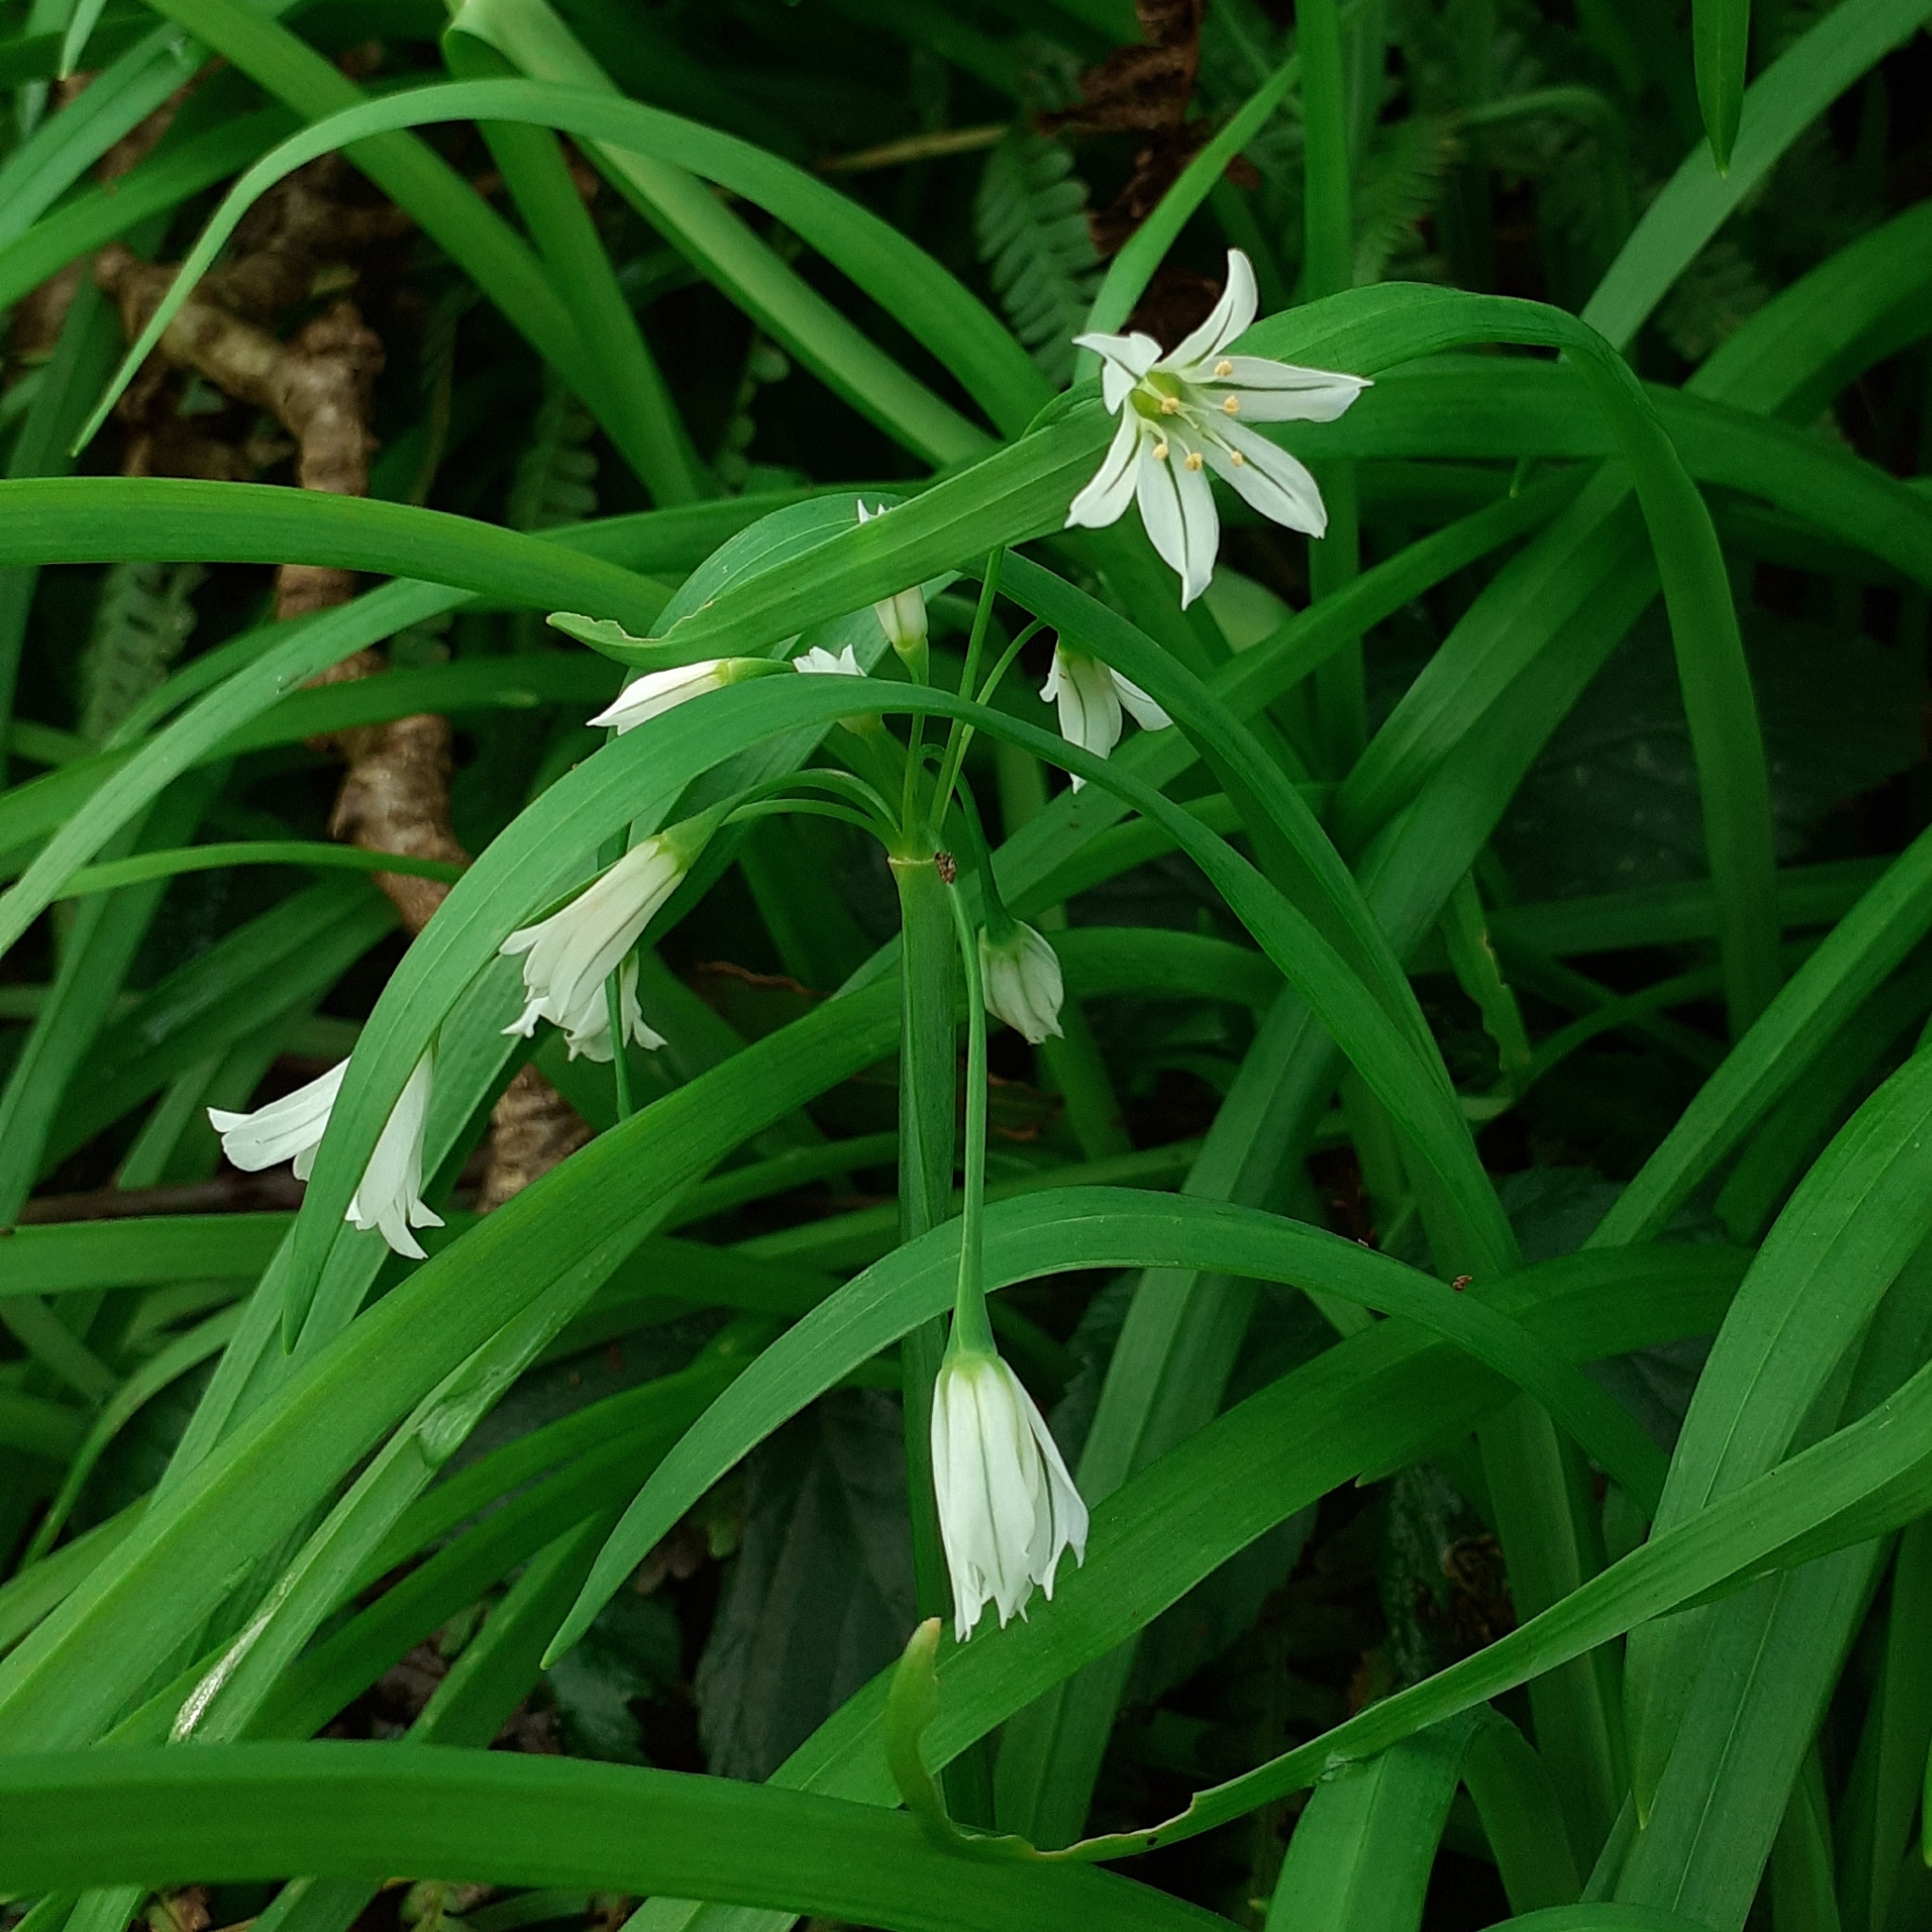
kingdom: Plantae
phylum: Tracheophyta
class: Liliopsida
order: Asparagales
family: Amaryllidaceae
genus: Allium
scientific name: Allium triquetrum
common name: Three-cornered garlic
